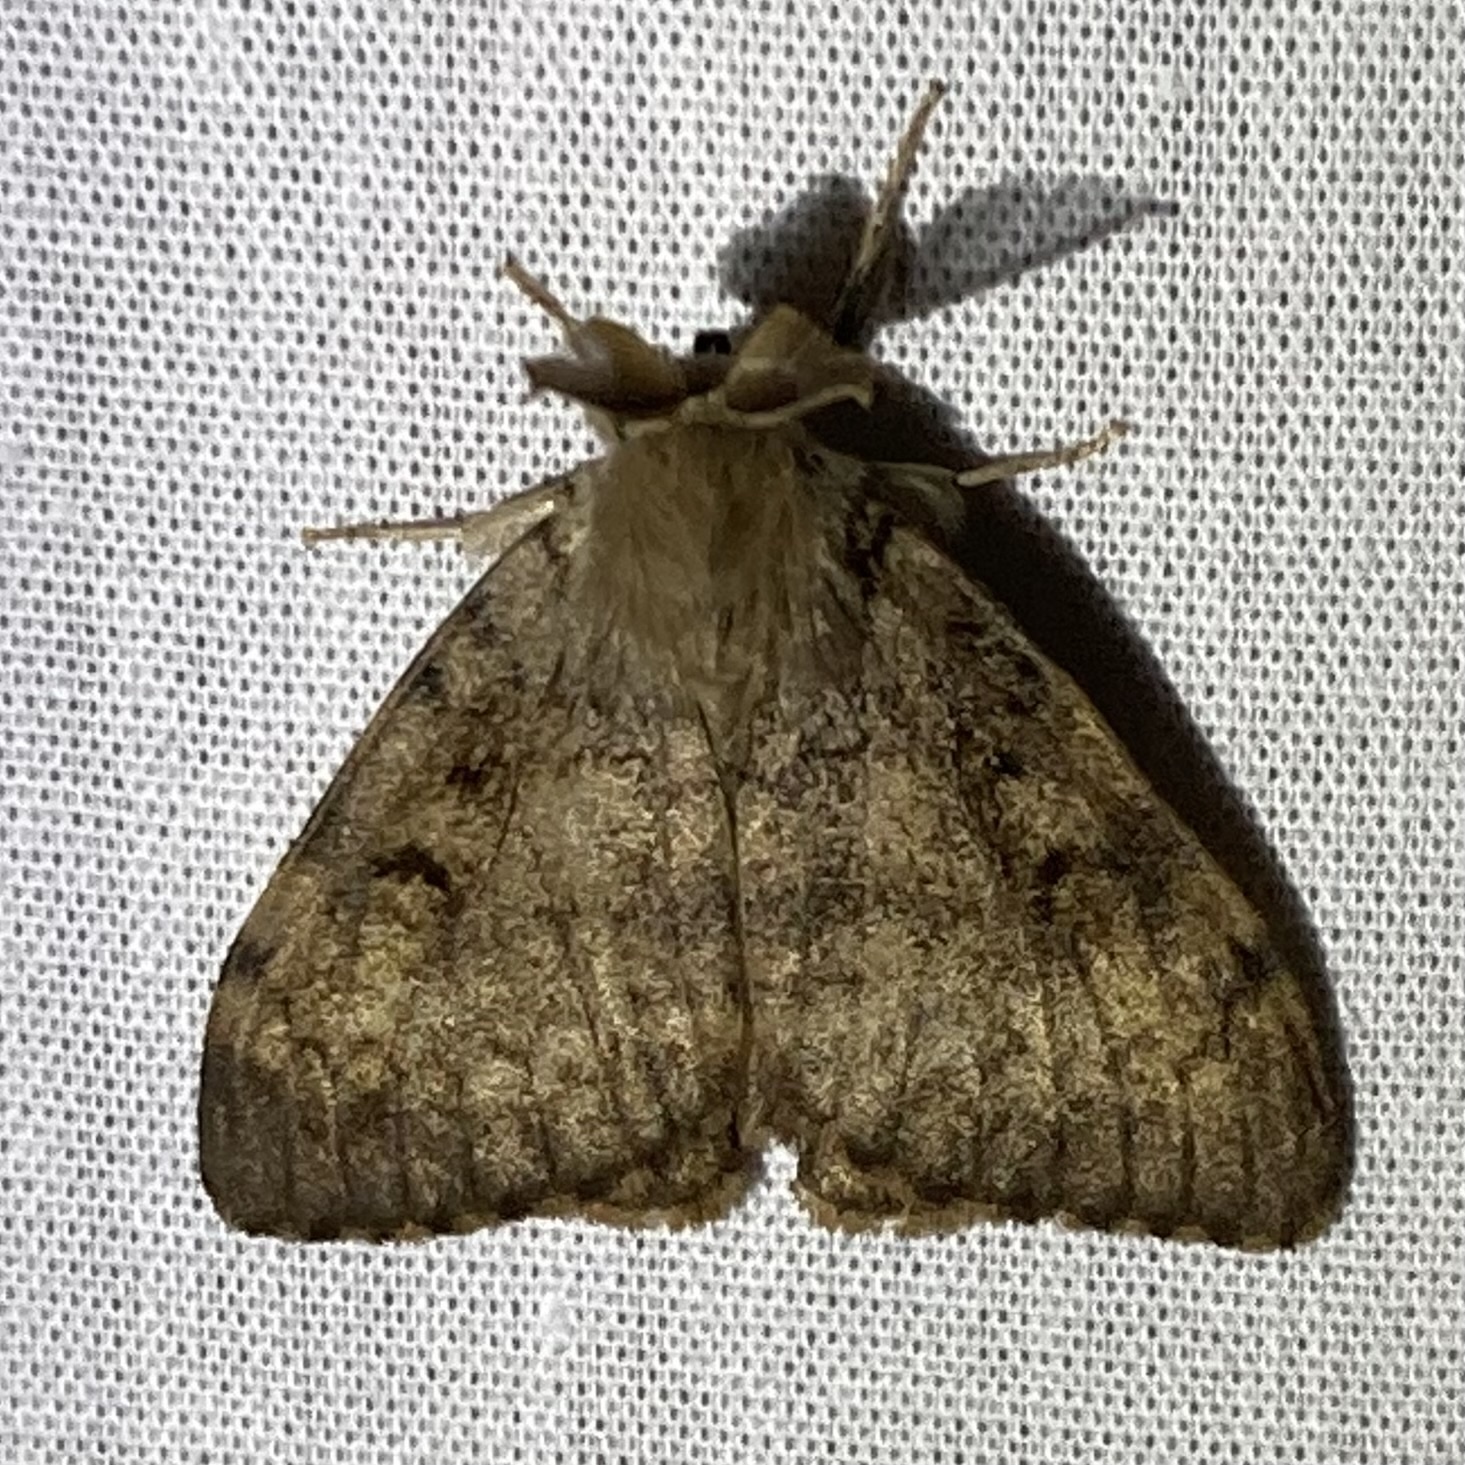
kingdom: Animalia
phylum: Arthropoda
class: Insecta
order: Lepidoptera
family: Erebidae
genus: Lymantria
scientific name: Lymantria dispar
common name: Gypsy moth
